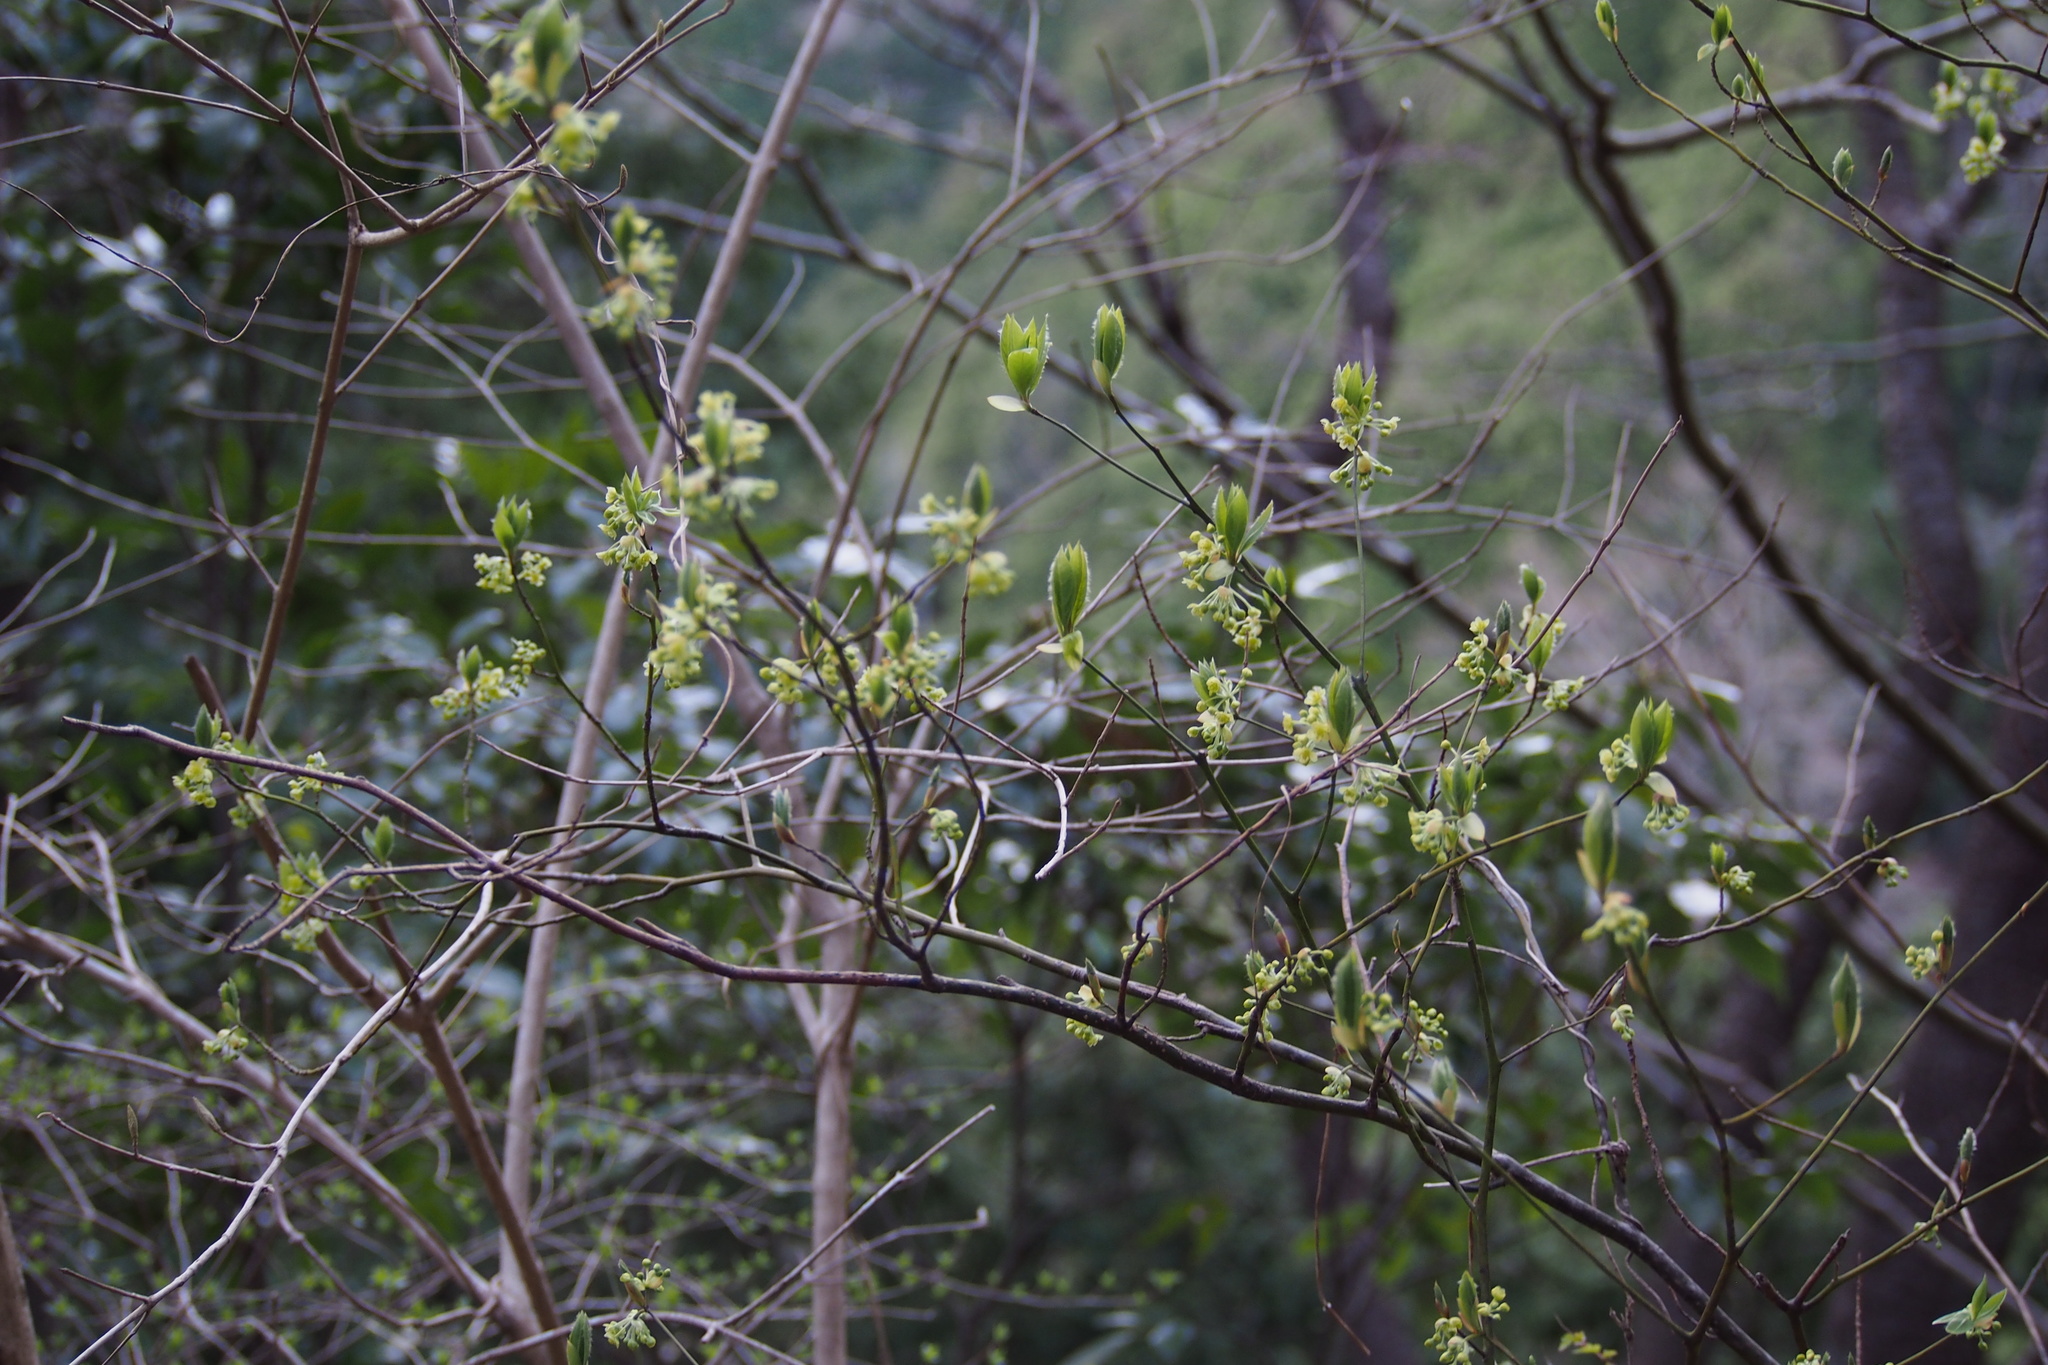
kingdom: Plantae
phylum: Tracheophyta
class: Magnoliopsida
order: Laurales
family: Lauraceae
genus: Lindera
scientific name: Lindera umbellata
